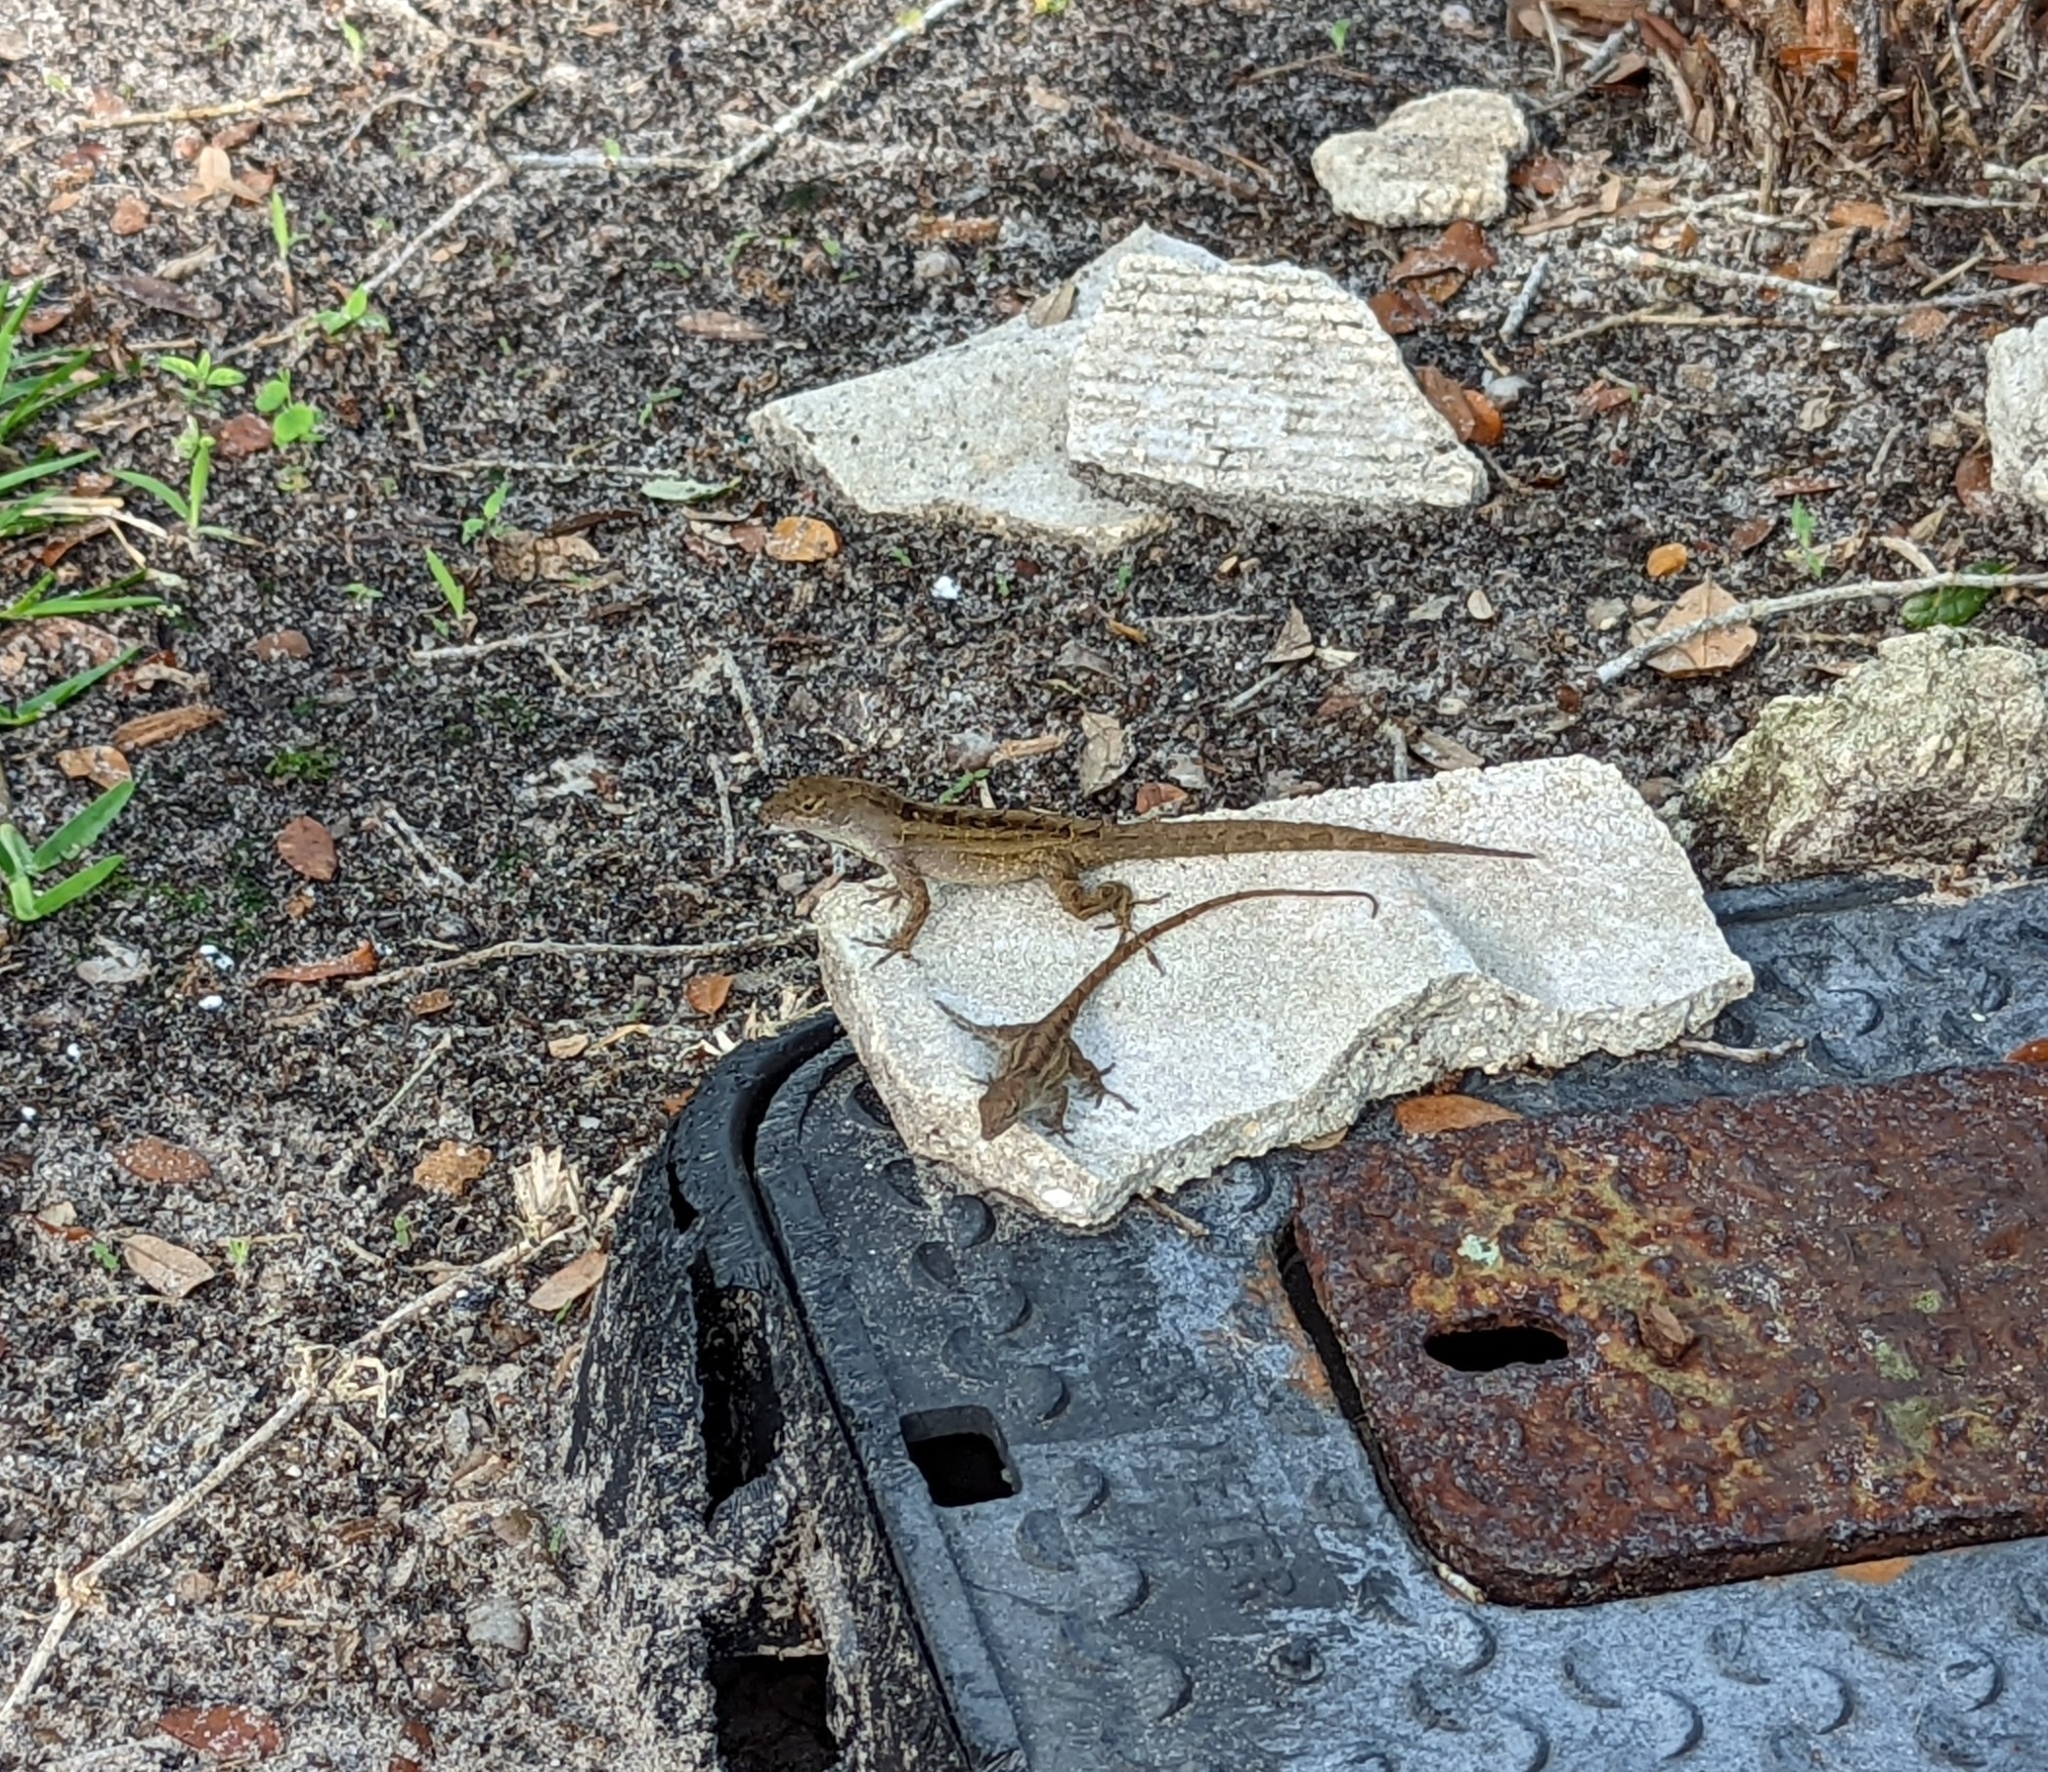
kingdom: Animalia
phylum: Chordata
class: Squamata
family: Dactyloidae
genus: Anolis
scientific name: Anolis sagrei
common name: Brown anole
